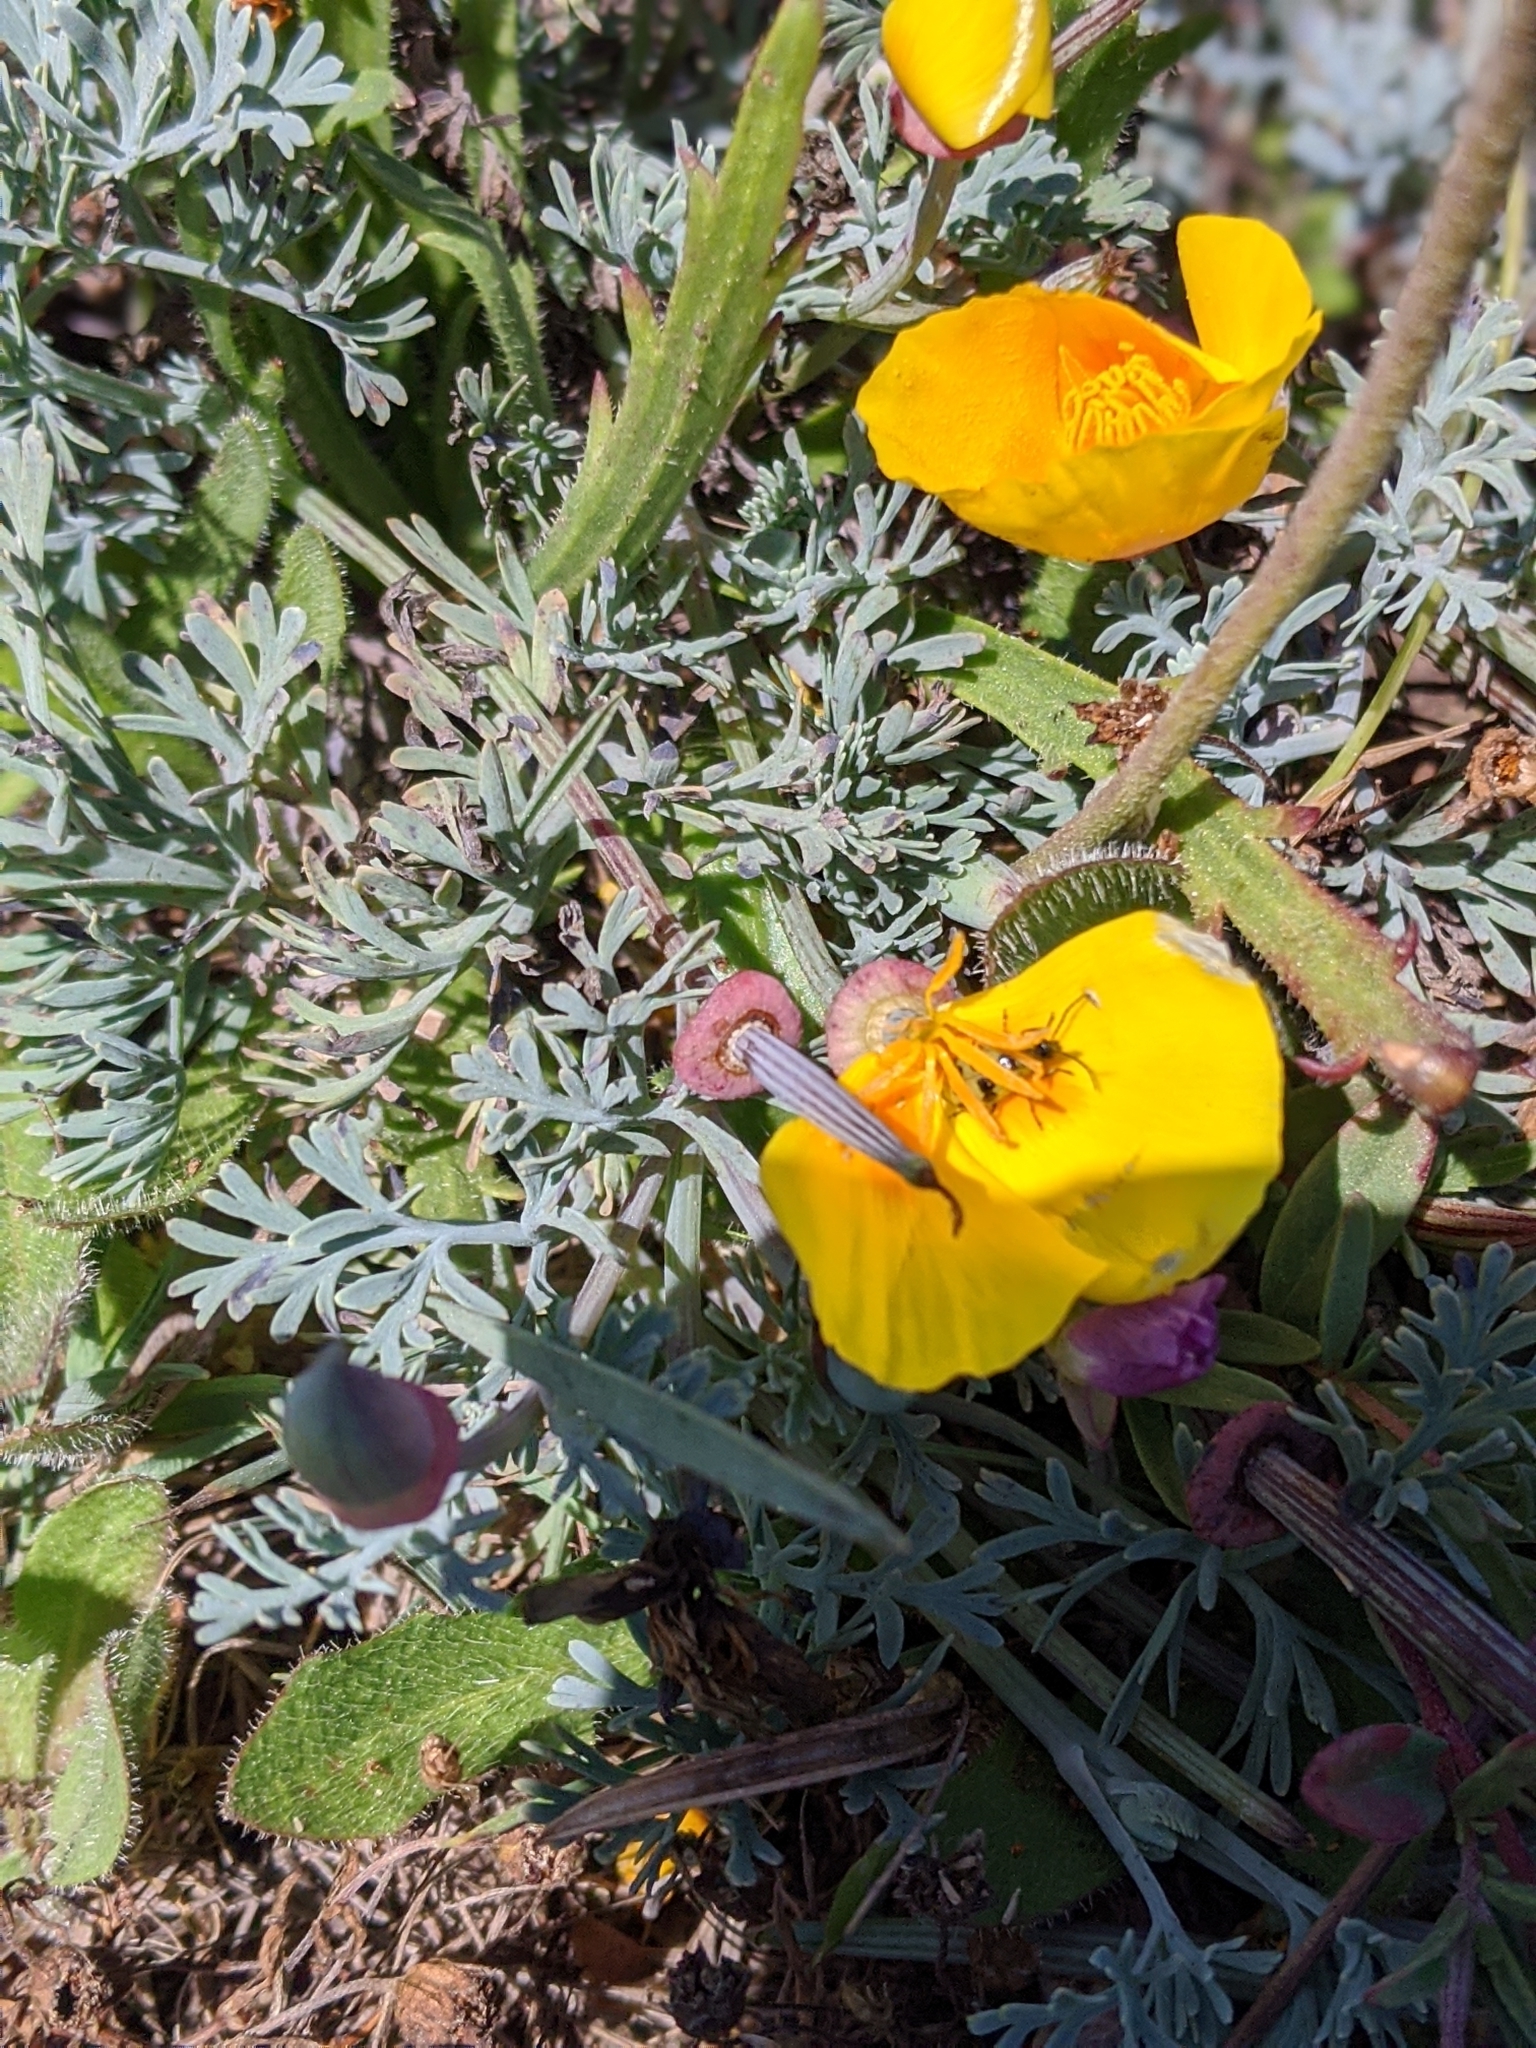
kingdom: Plantae
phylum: Tracheophyta
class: Magnoliopsida
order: Ranunculales
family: Papaveraceae
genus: Eschscholzia
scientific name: Eschscholzia californica
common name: California poppy
